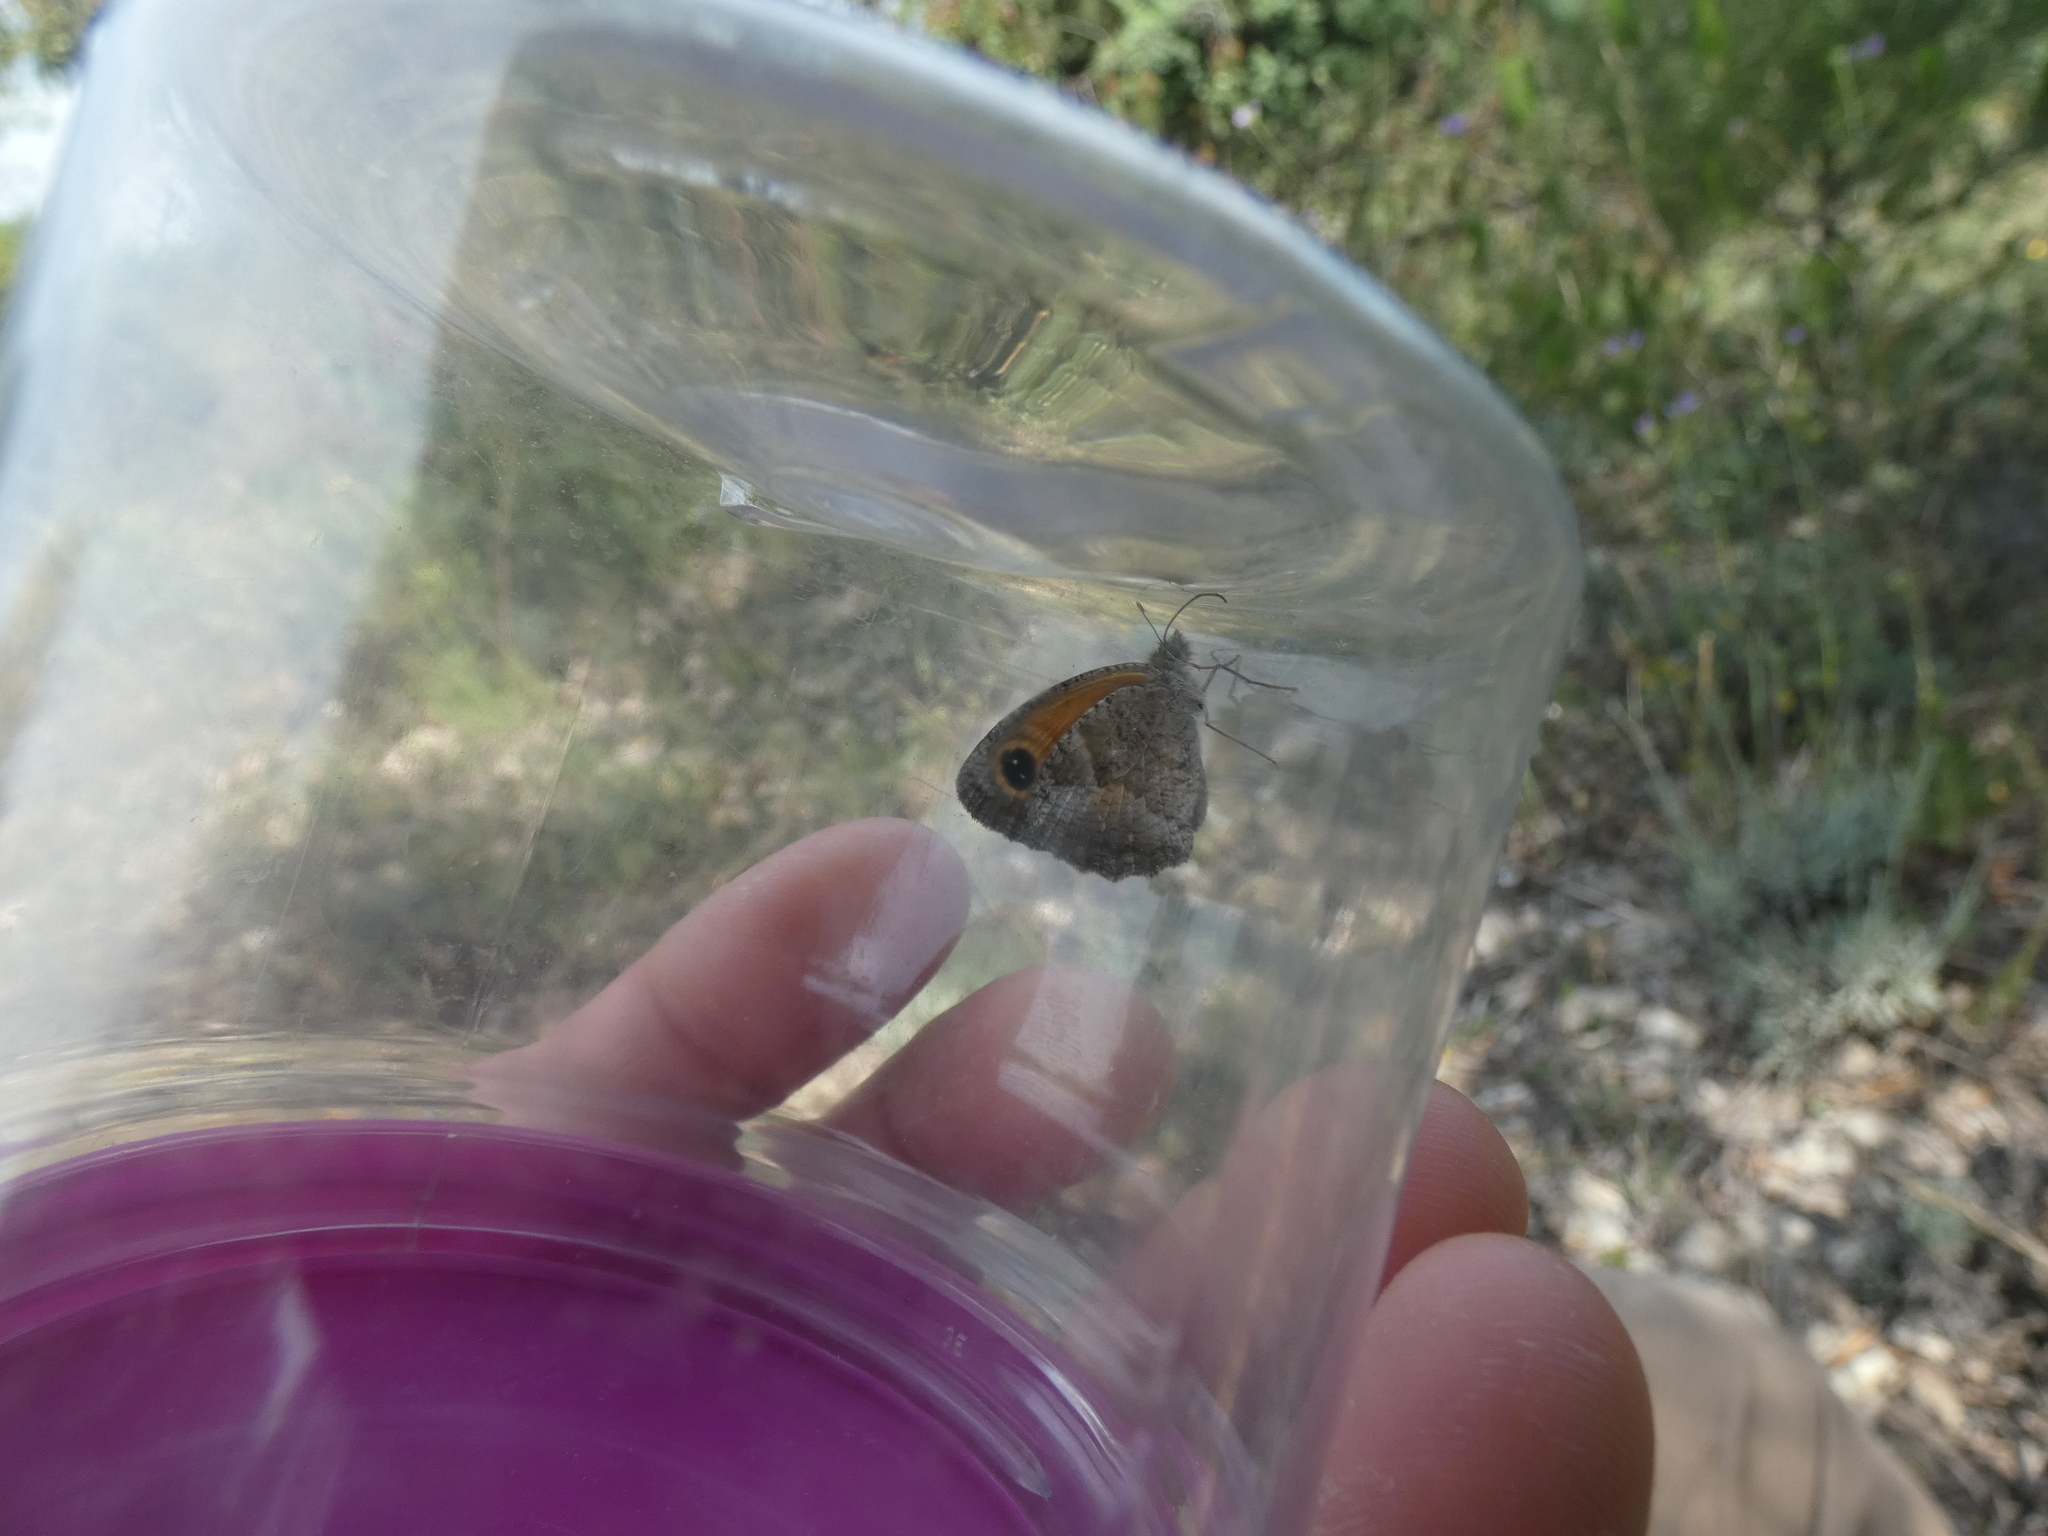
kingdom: Animalia
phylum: Arthropoda
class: Insecta
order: Lepidoptera
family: Nymphalidae
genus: Pyronia
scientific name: Pyronia cecilia
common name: Southern gatekeeper
